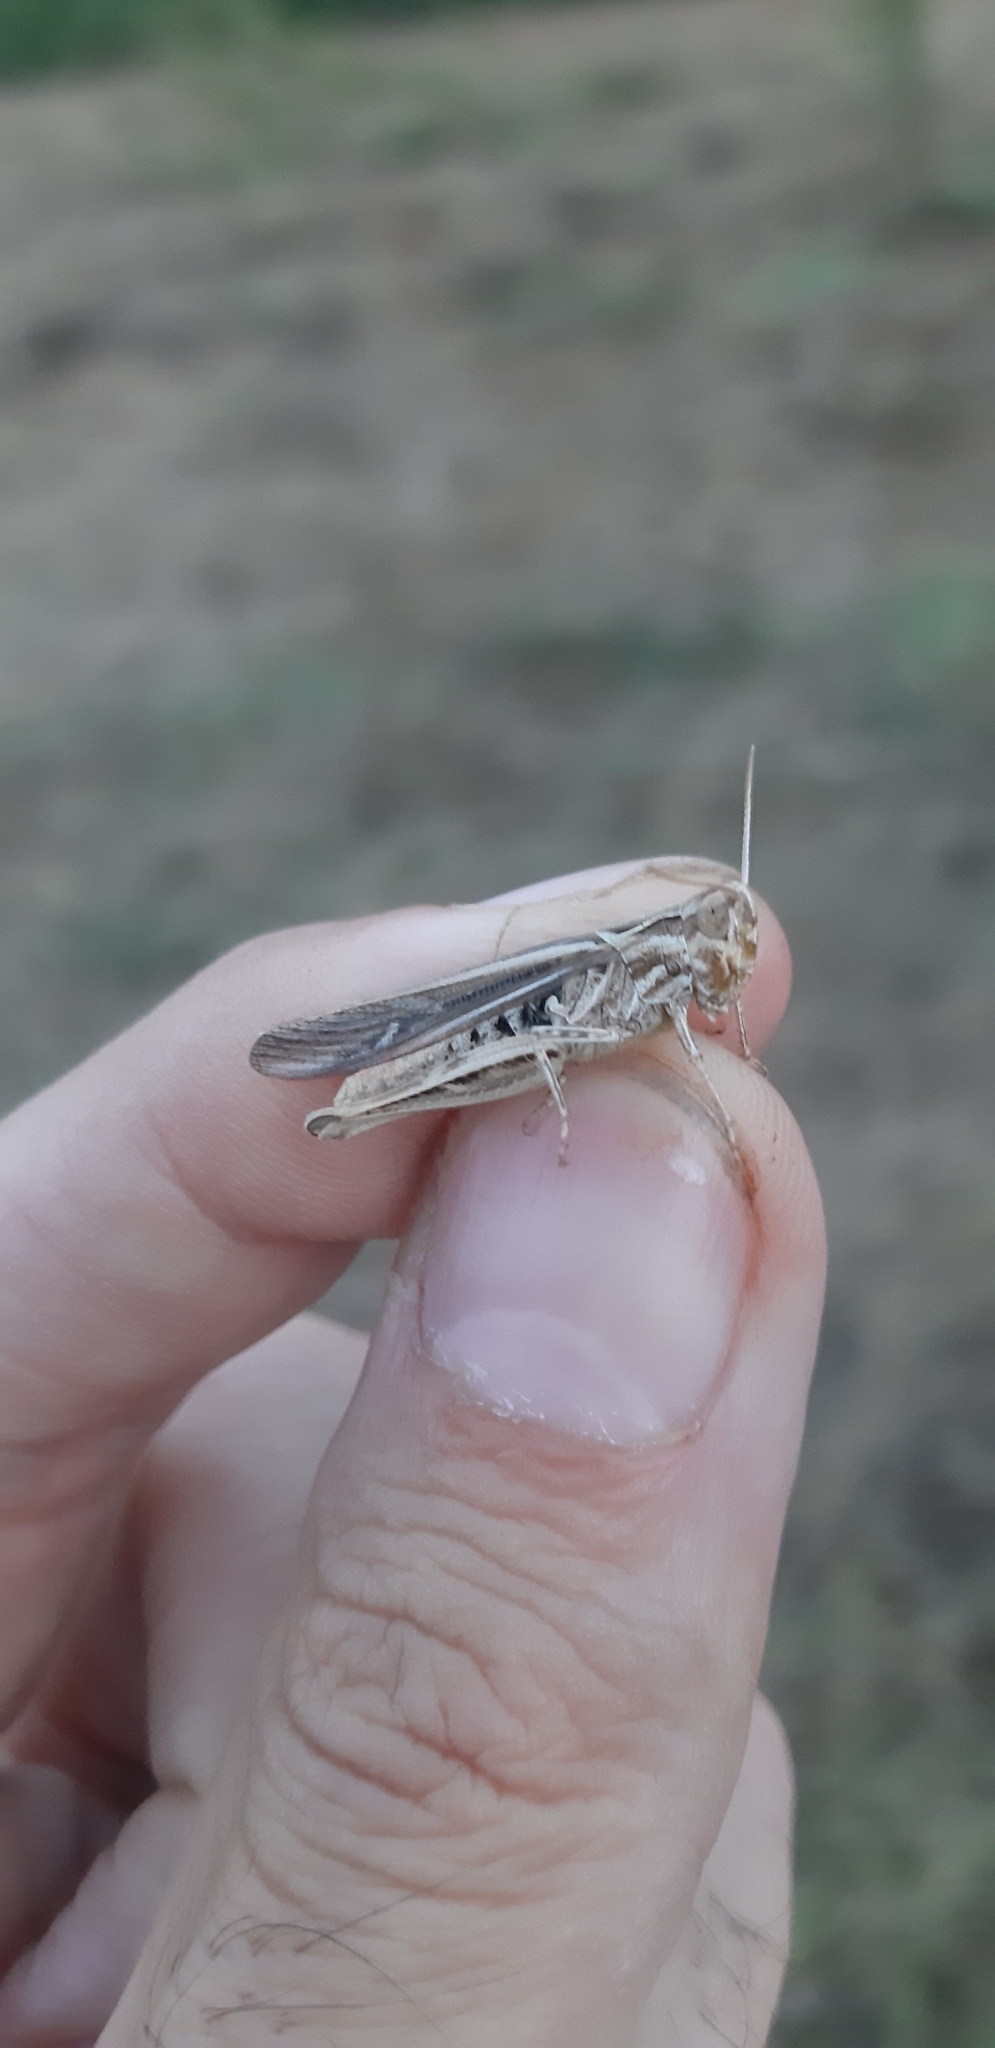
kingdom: Animalia
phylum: Arthropoda
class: Insecta
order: Orthoptera
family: Acrididae
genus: Chorthippus
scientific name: Chorthippus brunneus
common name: Field grasshopper
